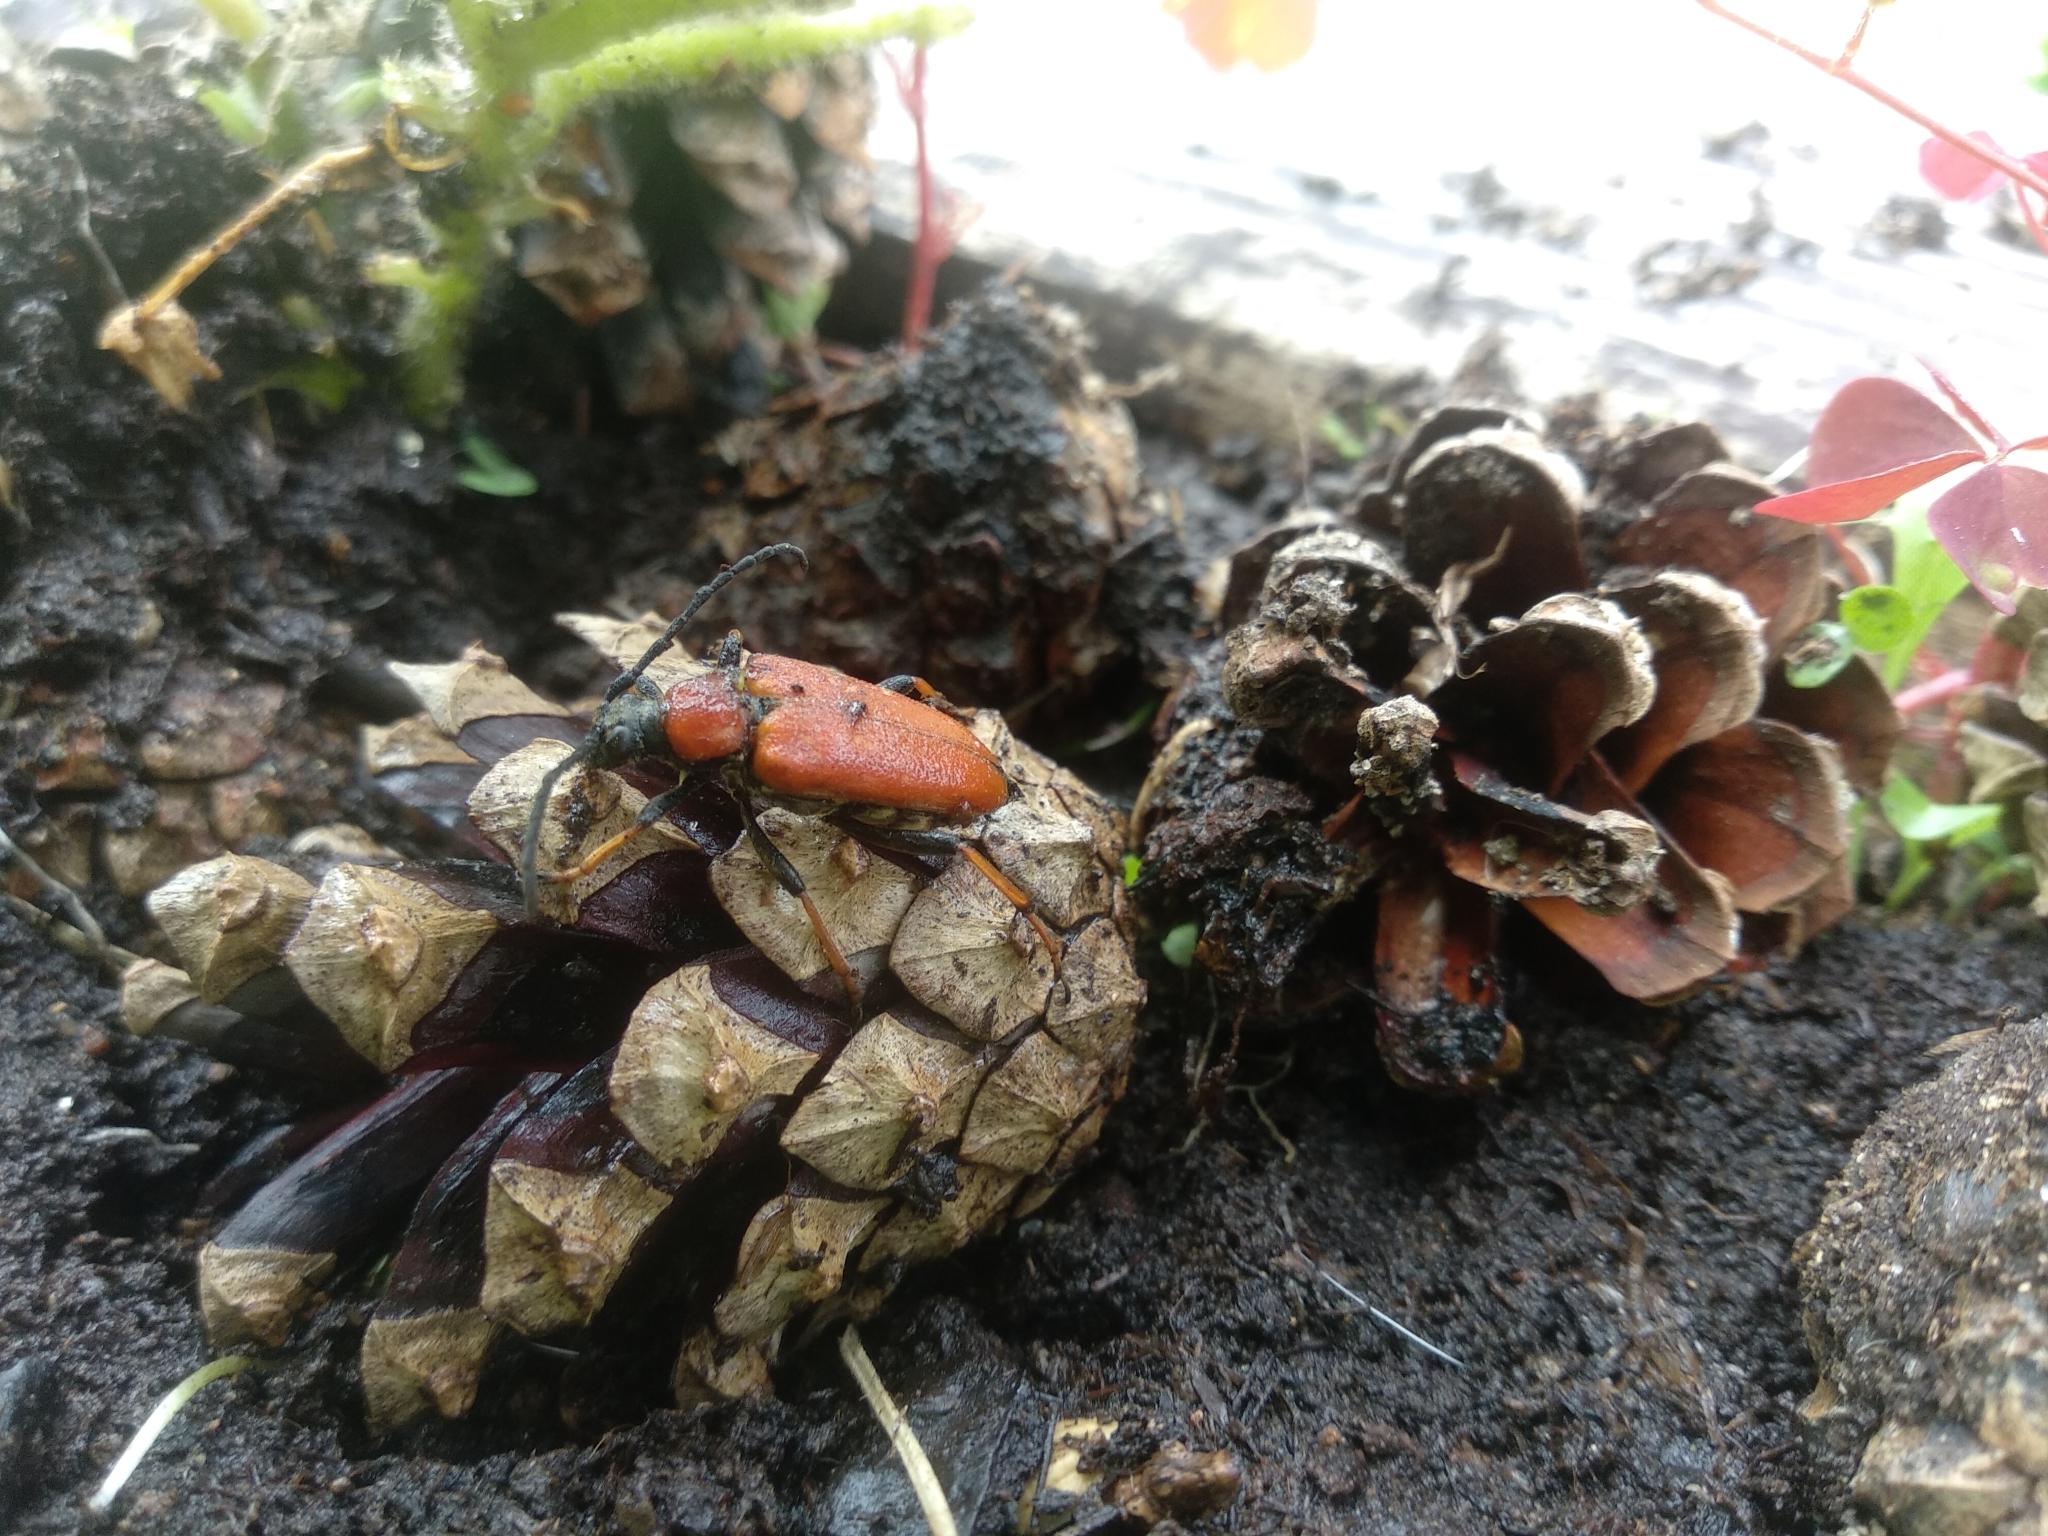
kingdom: Animalia
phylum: Arthropoda
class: Insecta
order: Coleoptera
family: Cerambycidae
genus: Stictoleptura
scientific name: Stictoleptura rubra
